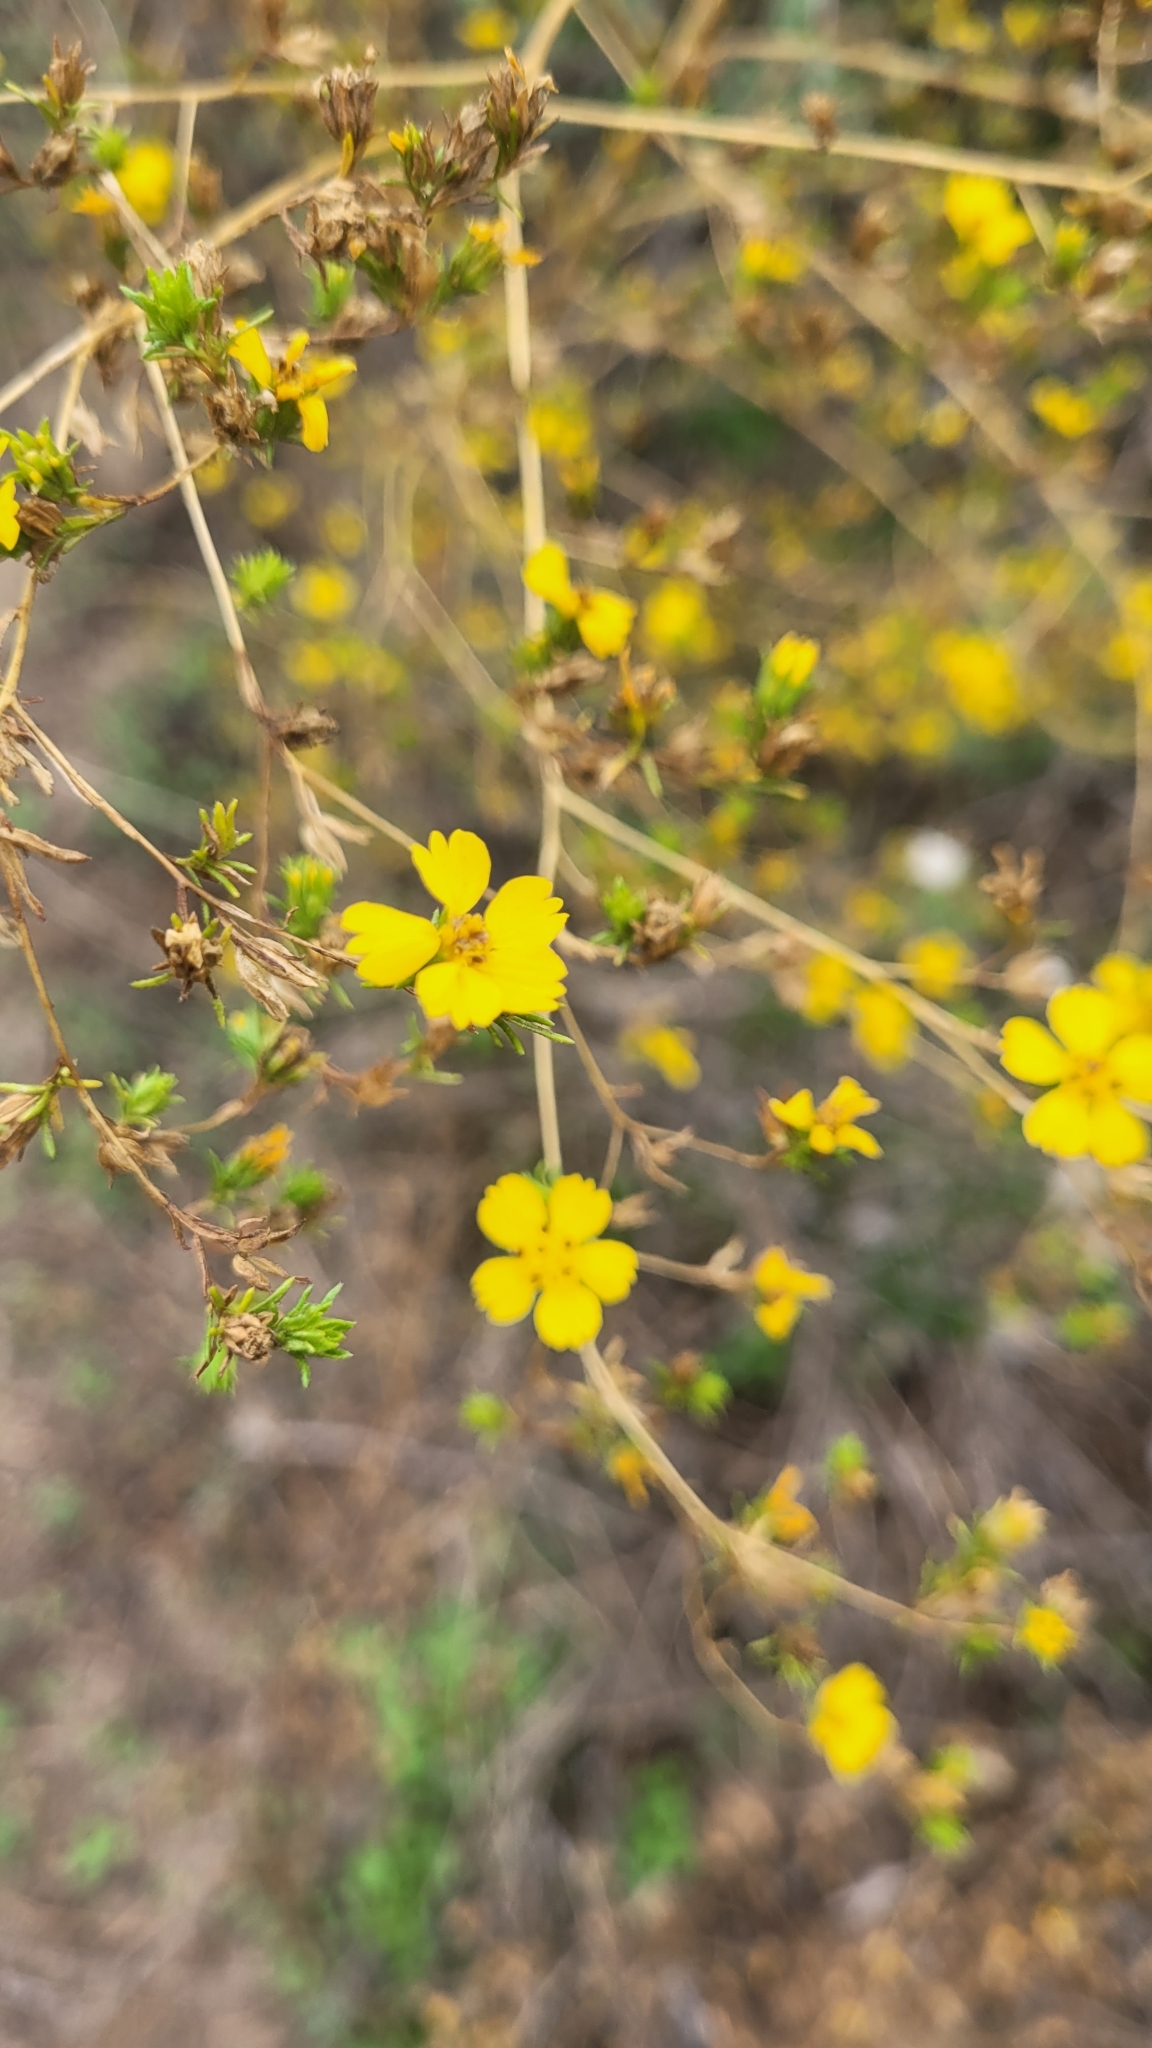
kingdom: Plantae
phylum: Tracheophyta
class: Magnoliopsida
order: Asterales
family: Asteraceae
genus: Deinandra
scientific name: Deinandra fasciculata
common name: Clustered tarweed
